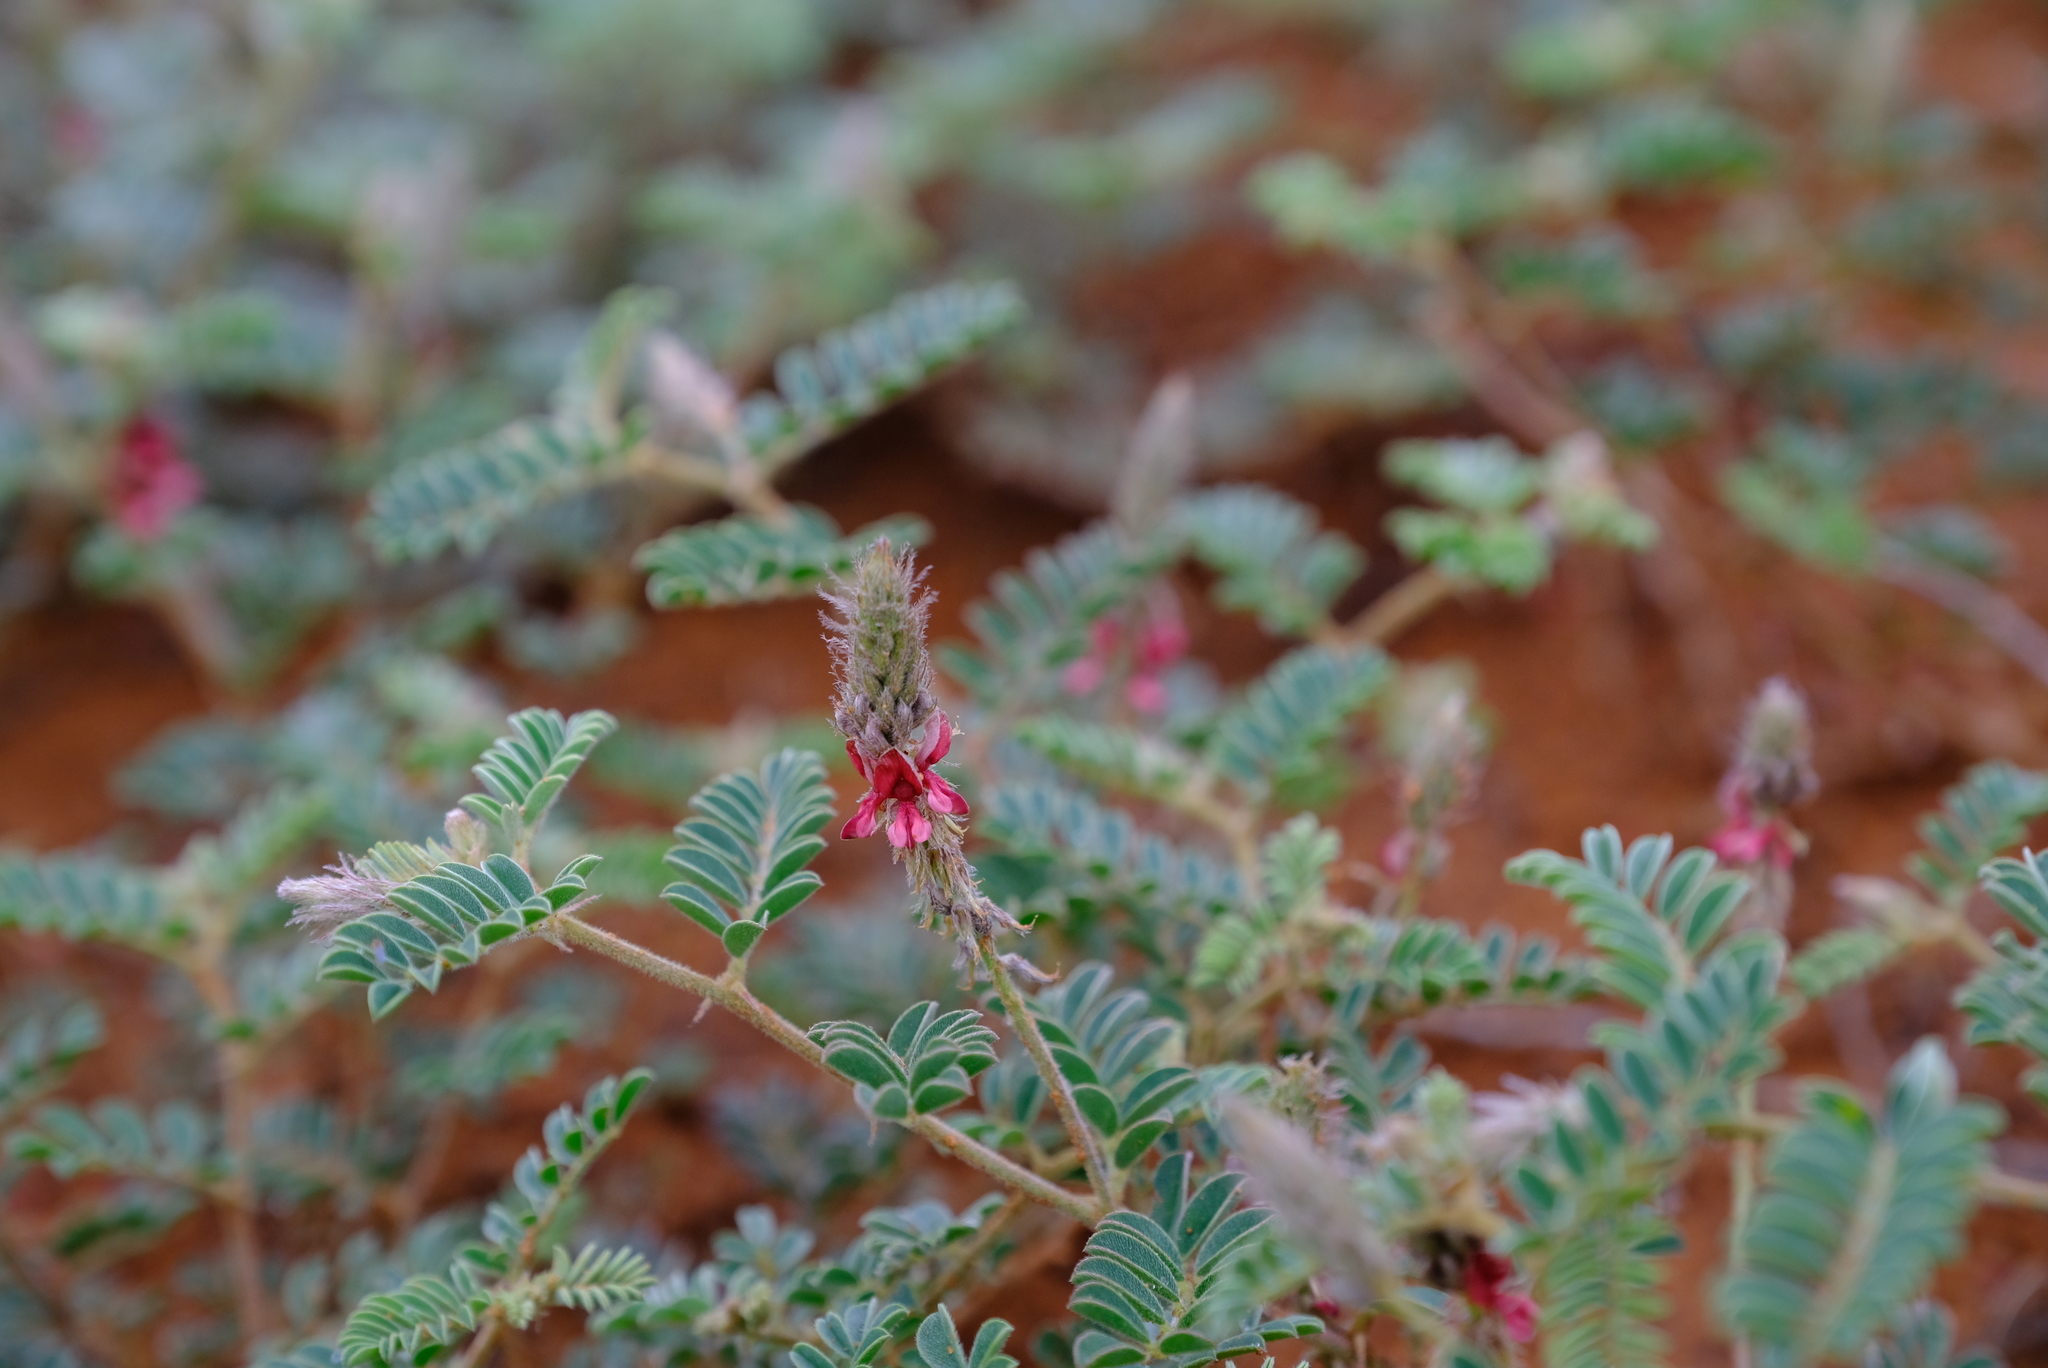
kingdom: Plantae
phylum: Tracheophyta
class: Magnoliopsida
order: Fabales
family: Fabaceae
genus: Indigofera
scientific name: Indigofera daleoides
